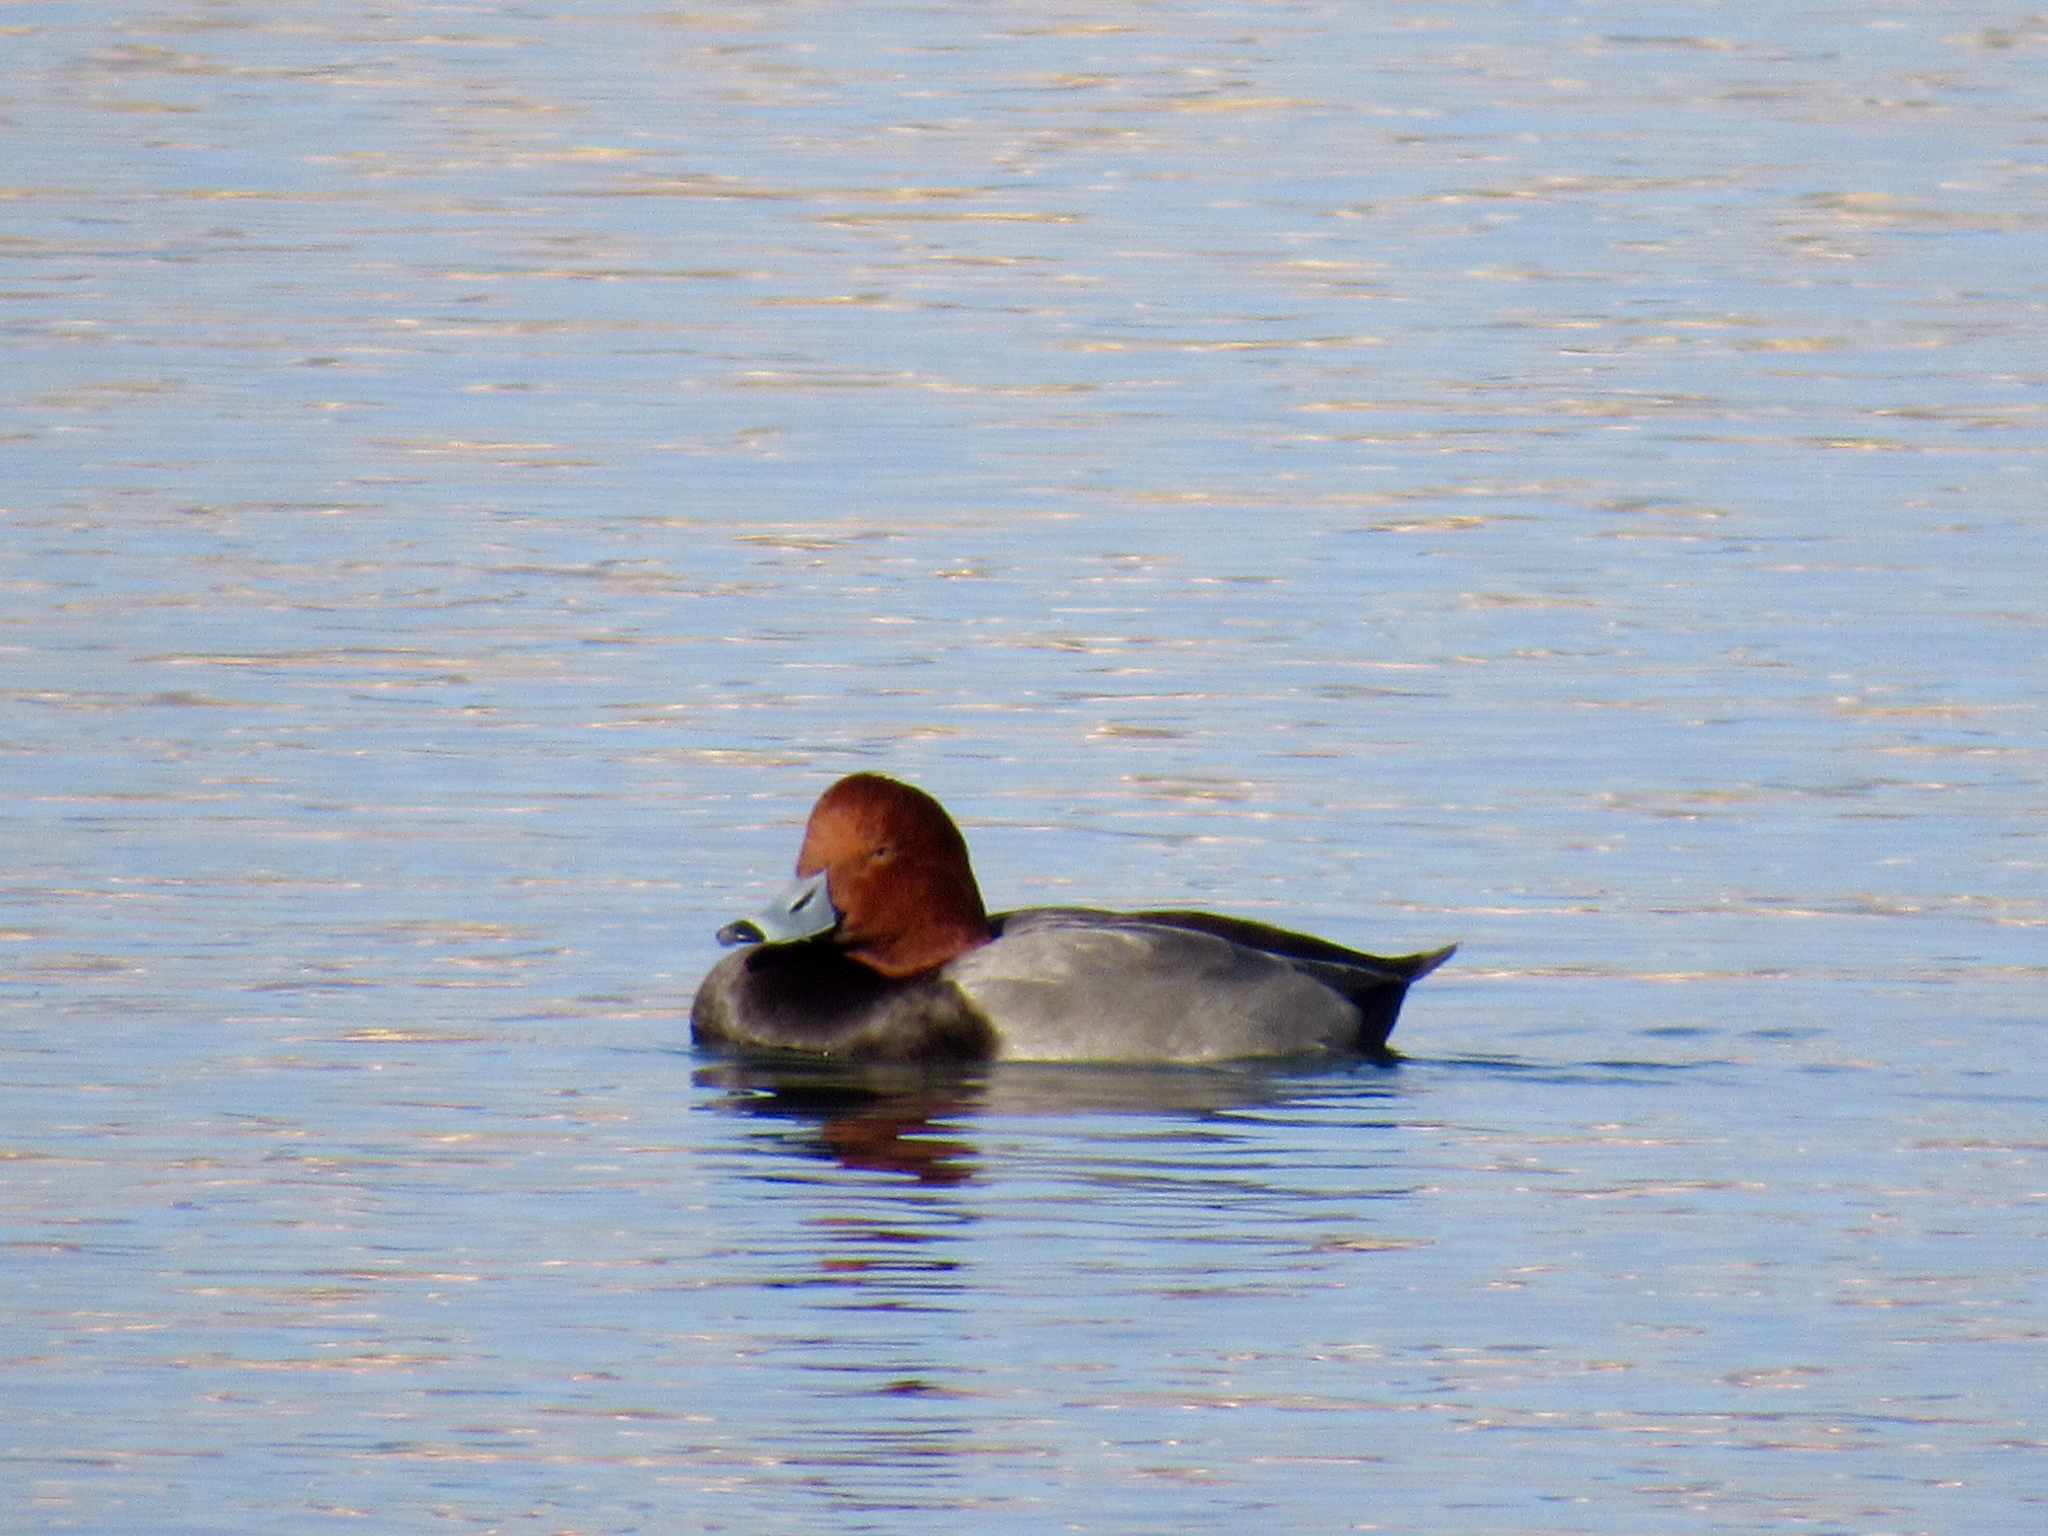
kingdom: Animalia
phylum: Chordata
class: Aves
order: Anseriformes
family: Anatidae
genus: Aythya
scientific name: Aythya americana
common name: Redhead
